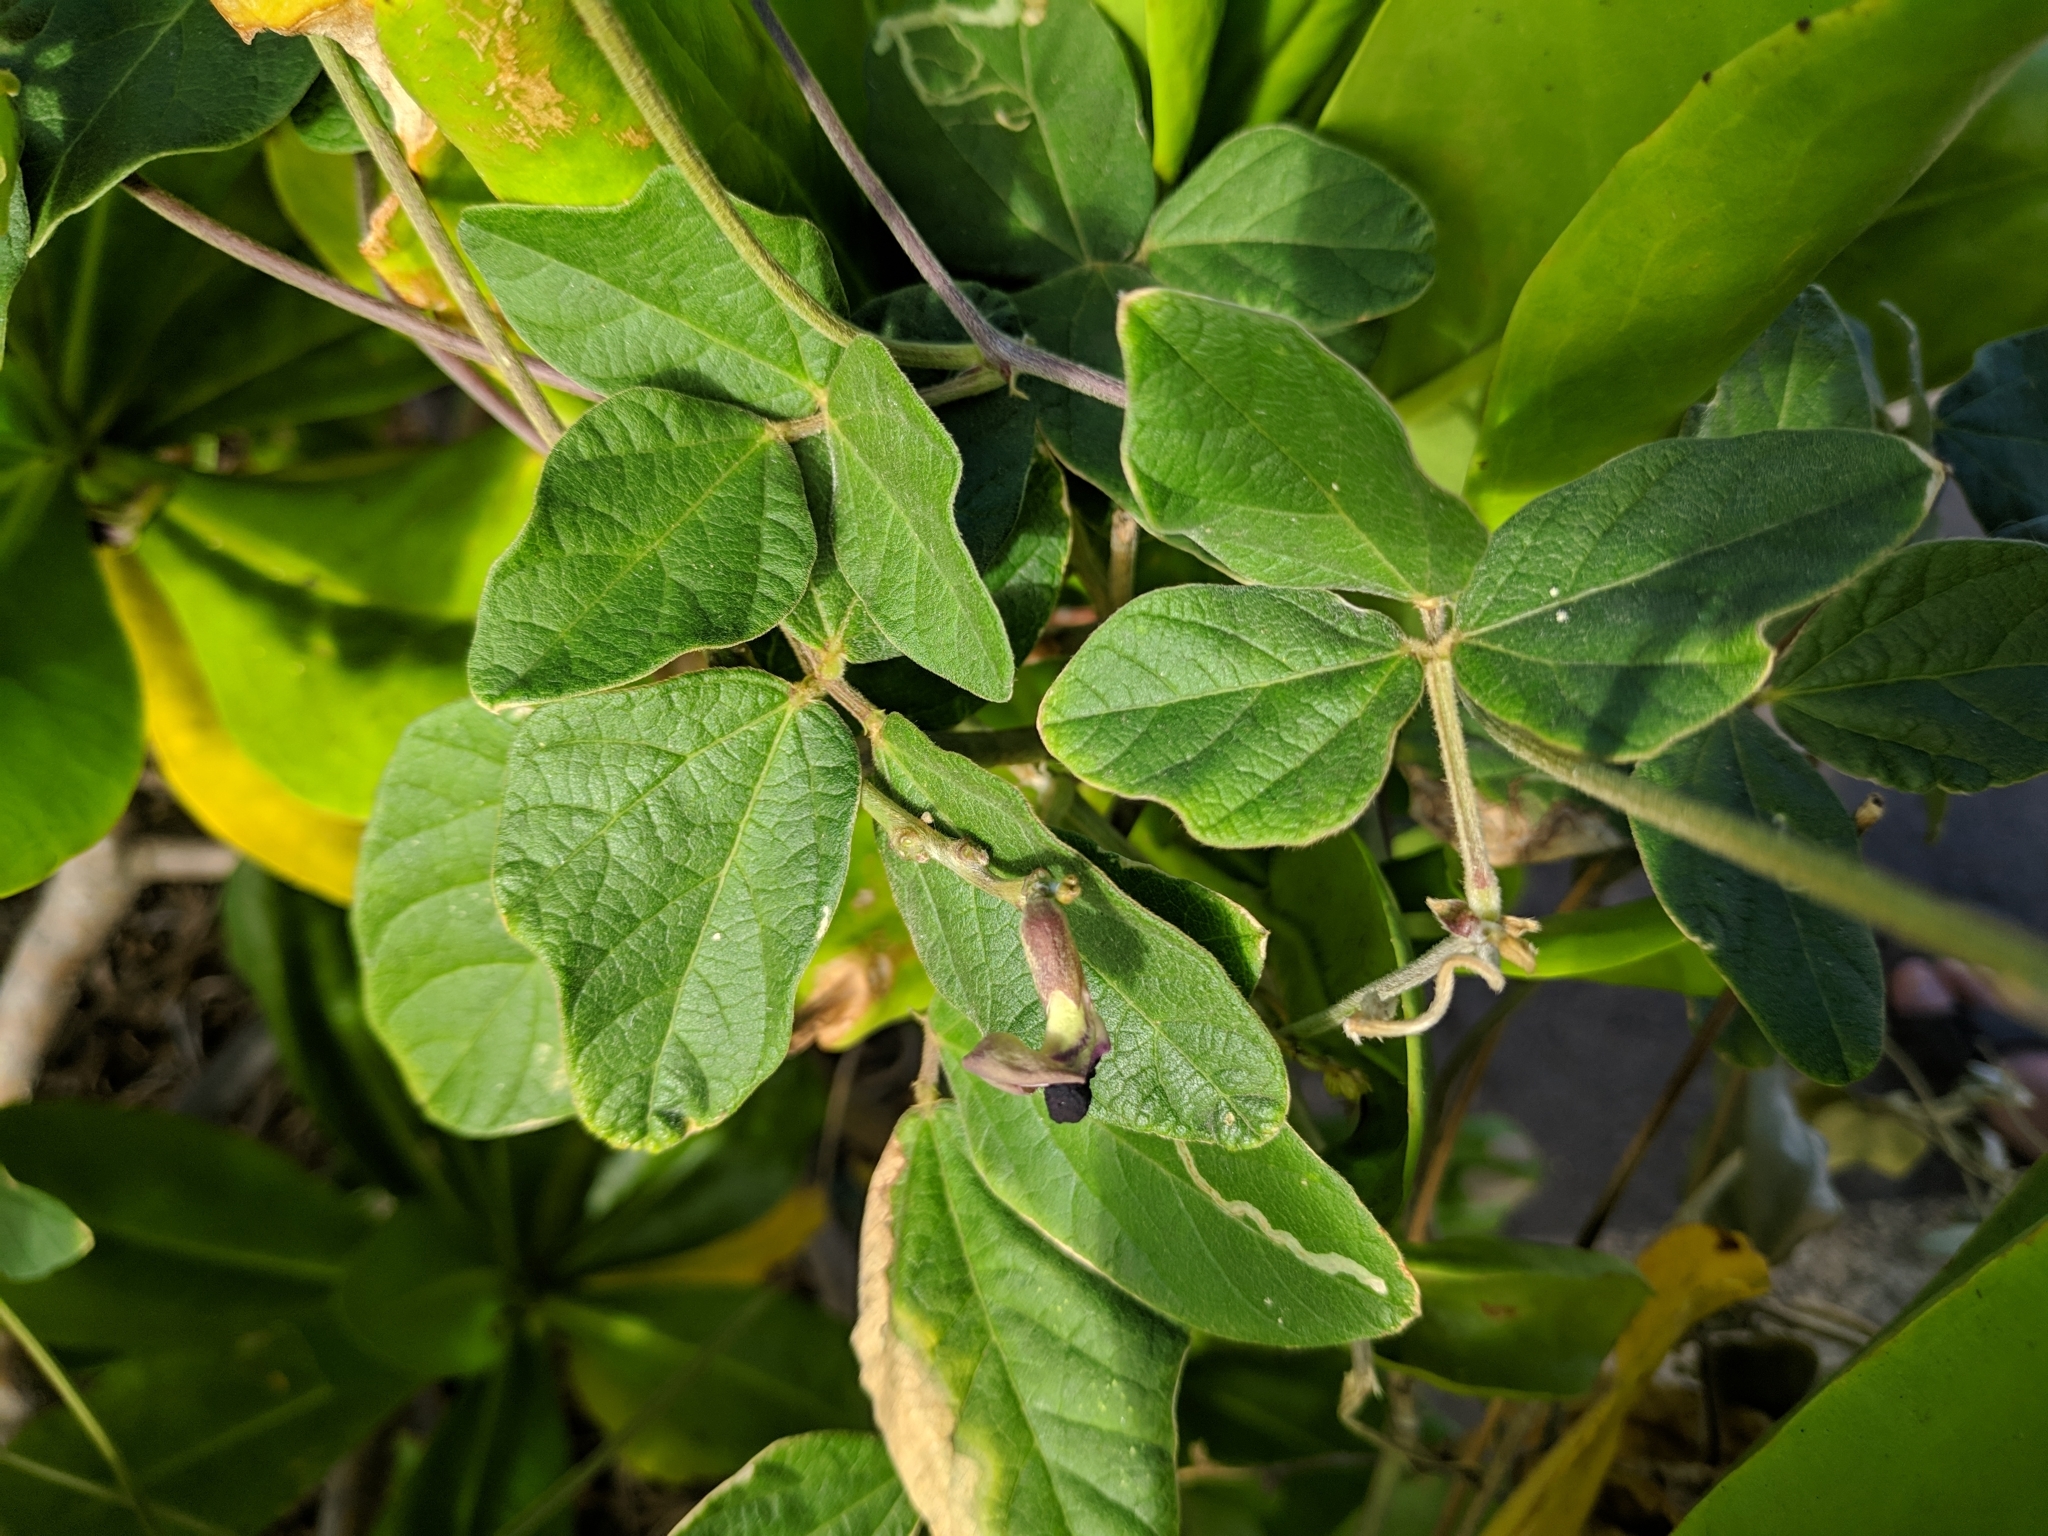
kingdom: Plantae
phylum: Tracheophyta
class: Magnoliopsida
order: Fabales
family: Fabaceae
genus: Macroptilium
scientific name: Macroptilium atropurpureum
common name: Purple bushbean
